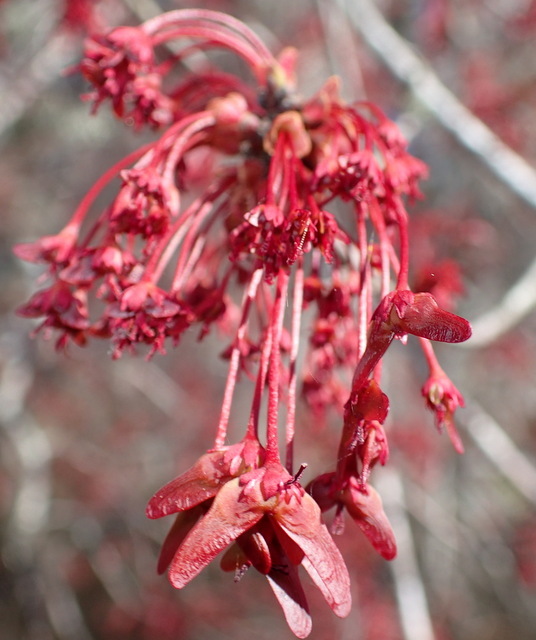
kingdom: Plantae
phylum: Tracheophyta
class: Magnoliopsida
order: Sapindales
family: Sapindaceae
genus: Acer
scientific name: Acer rubrum
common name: Red maple
